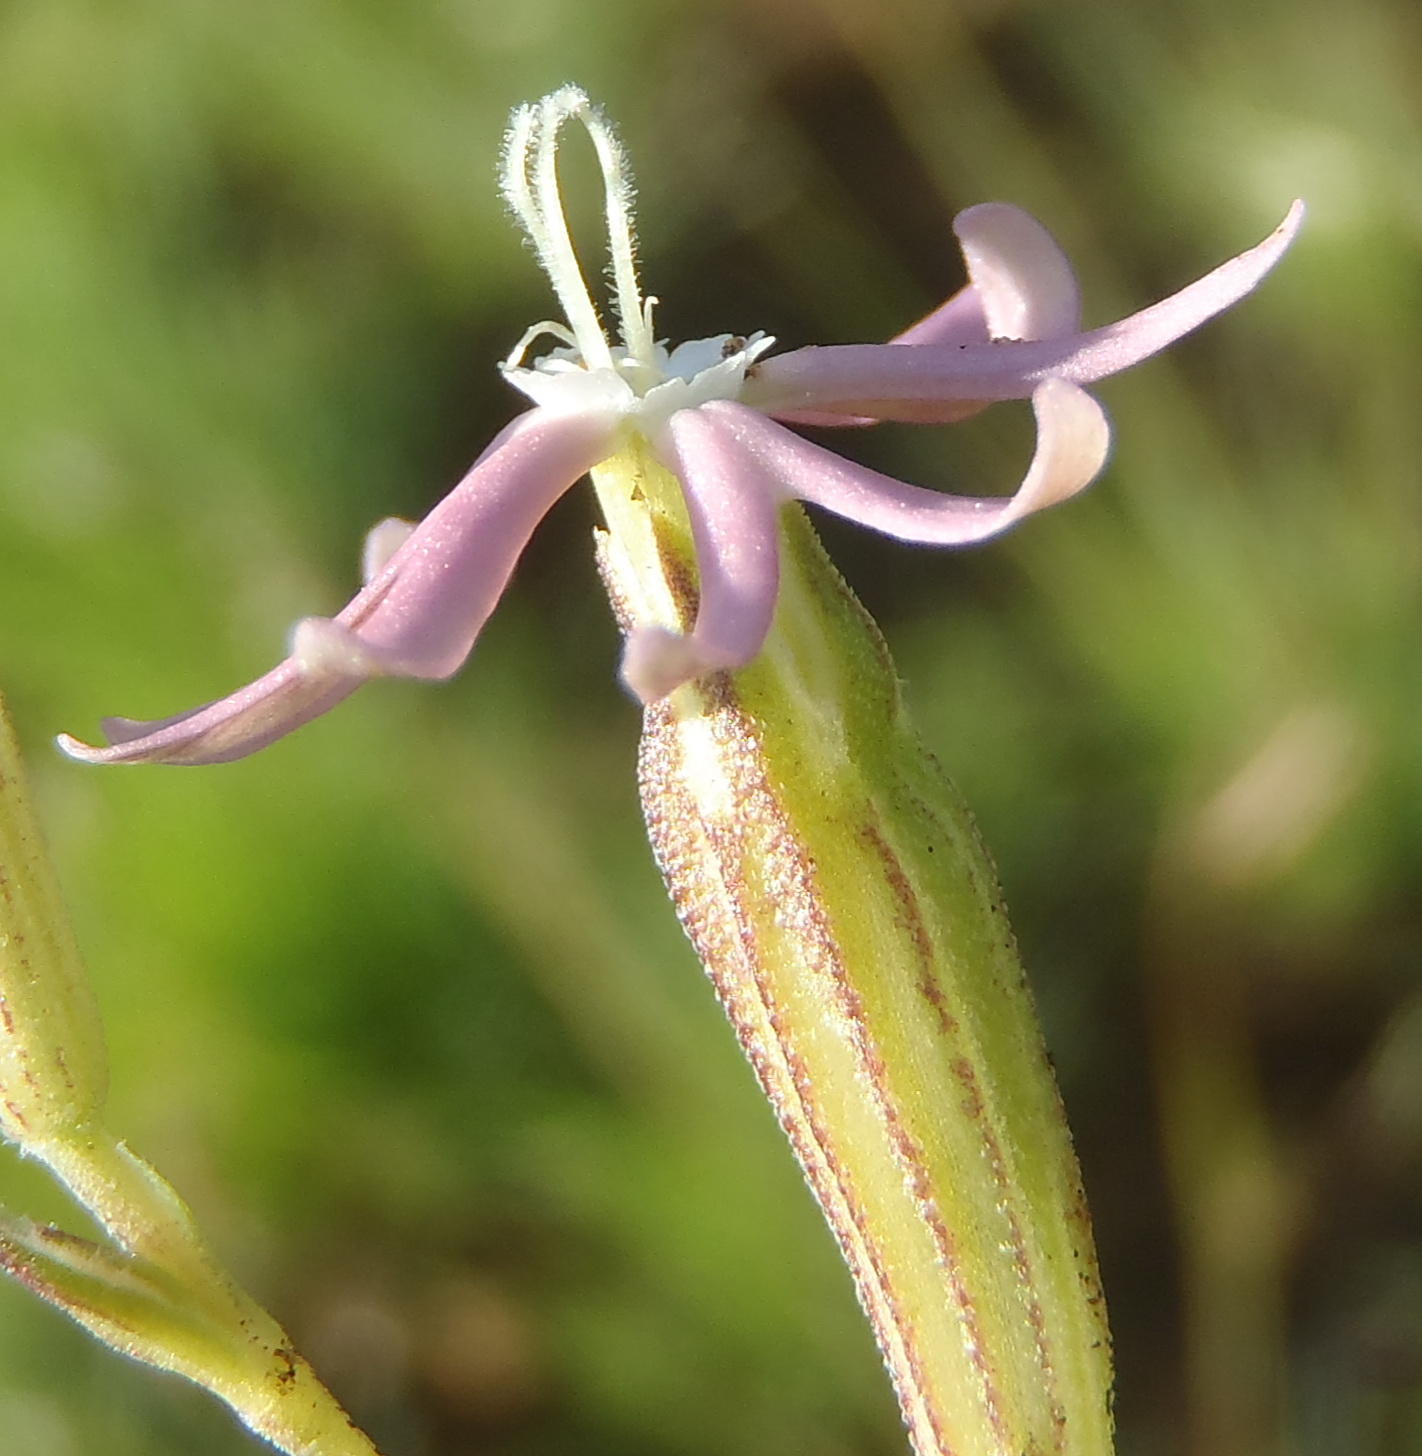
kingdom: Plantae
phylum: Tracheophyta
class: Magnoliopsida
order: Caryophyllales
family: Caryophyllaceae
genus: Silene
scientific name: Silene burchellii
